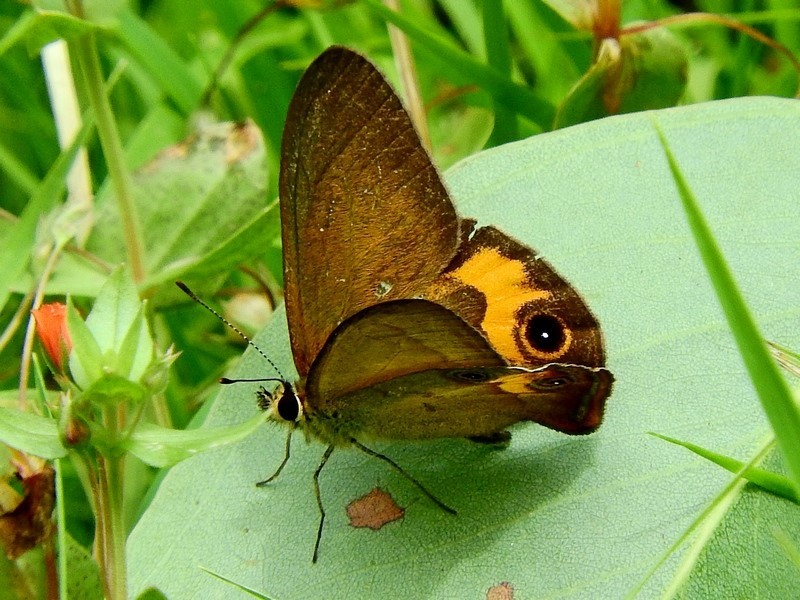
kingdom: Animalia
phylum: Arthropoda
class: Insecta
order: Lepidoptera
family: Nymphalidae
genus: Hypocysta
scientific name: Hypocysta metirius
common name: Brown ringlet
